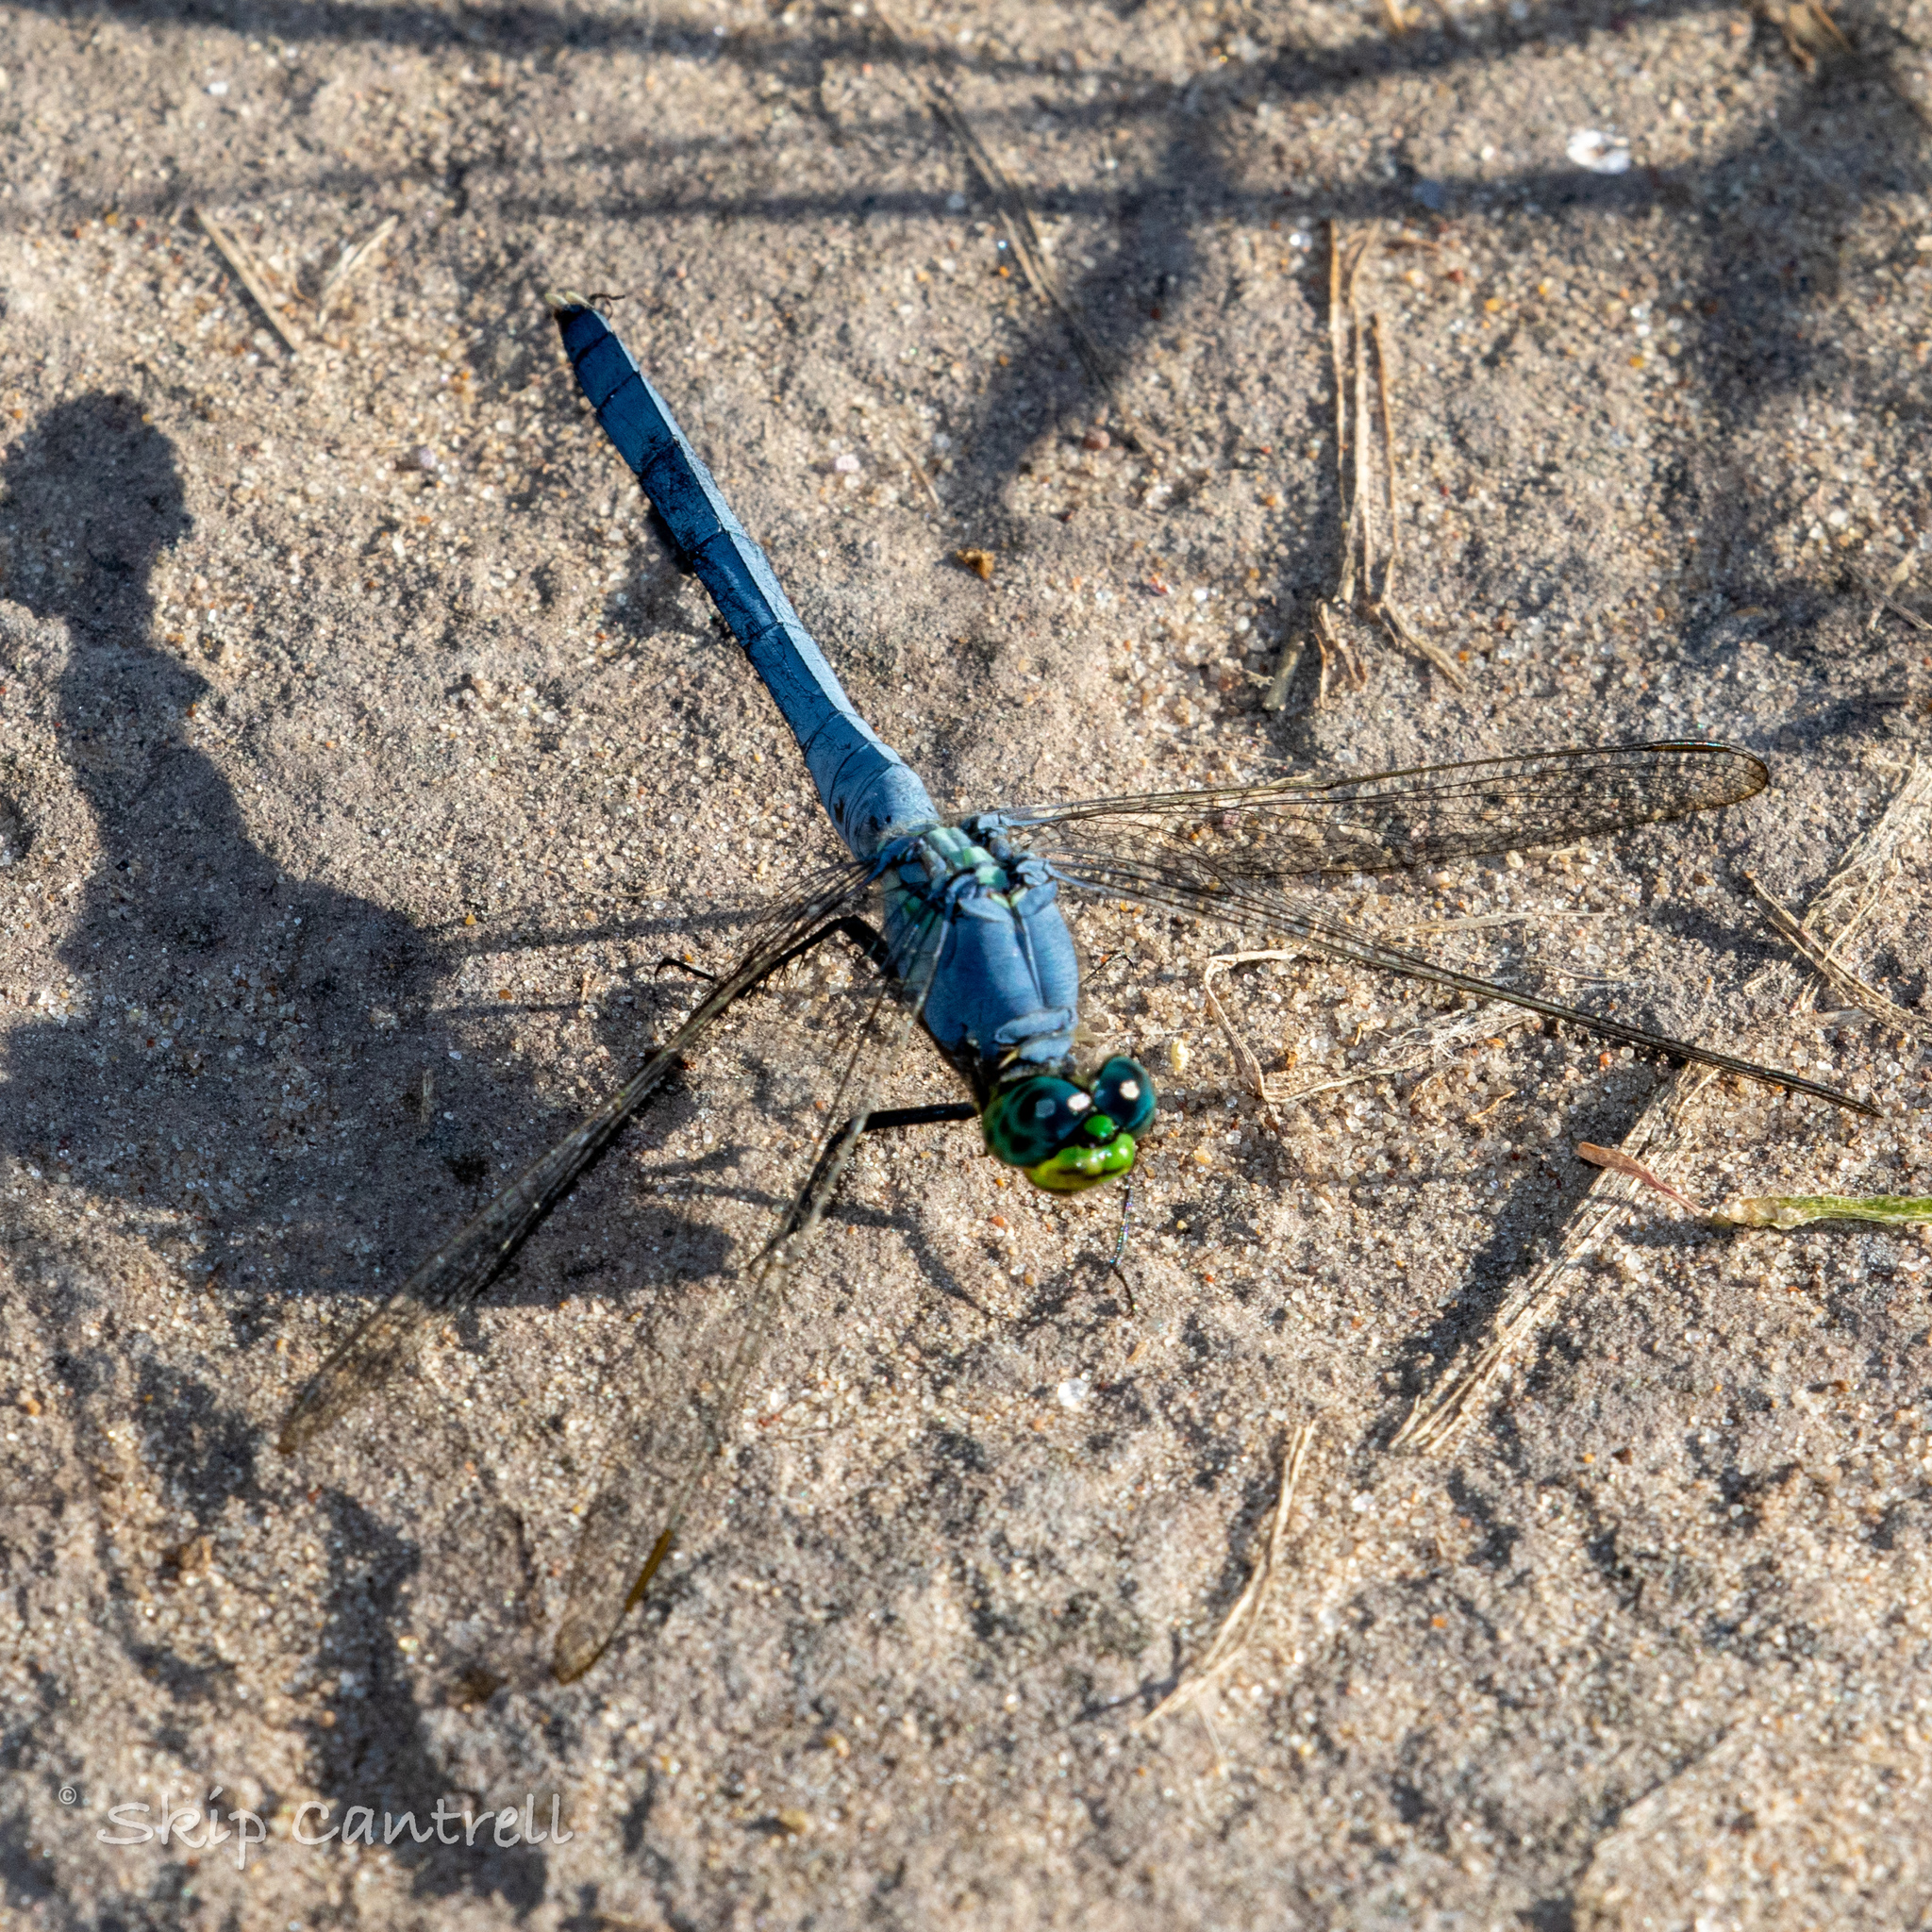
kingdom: Animalia
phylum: Arthropoda
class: Insecta
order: Odonata
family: Libellulidae
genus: Erythemis
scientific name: Erythemis simplicicollis
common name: Eastern pondhawk
